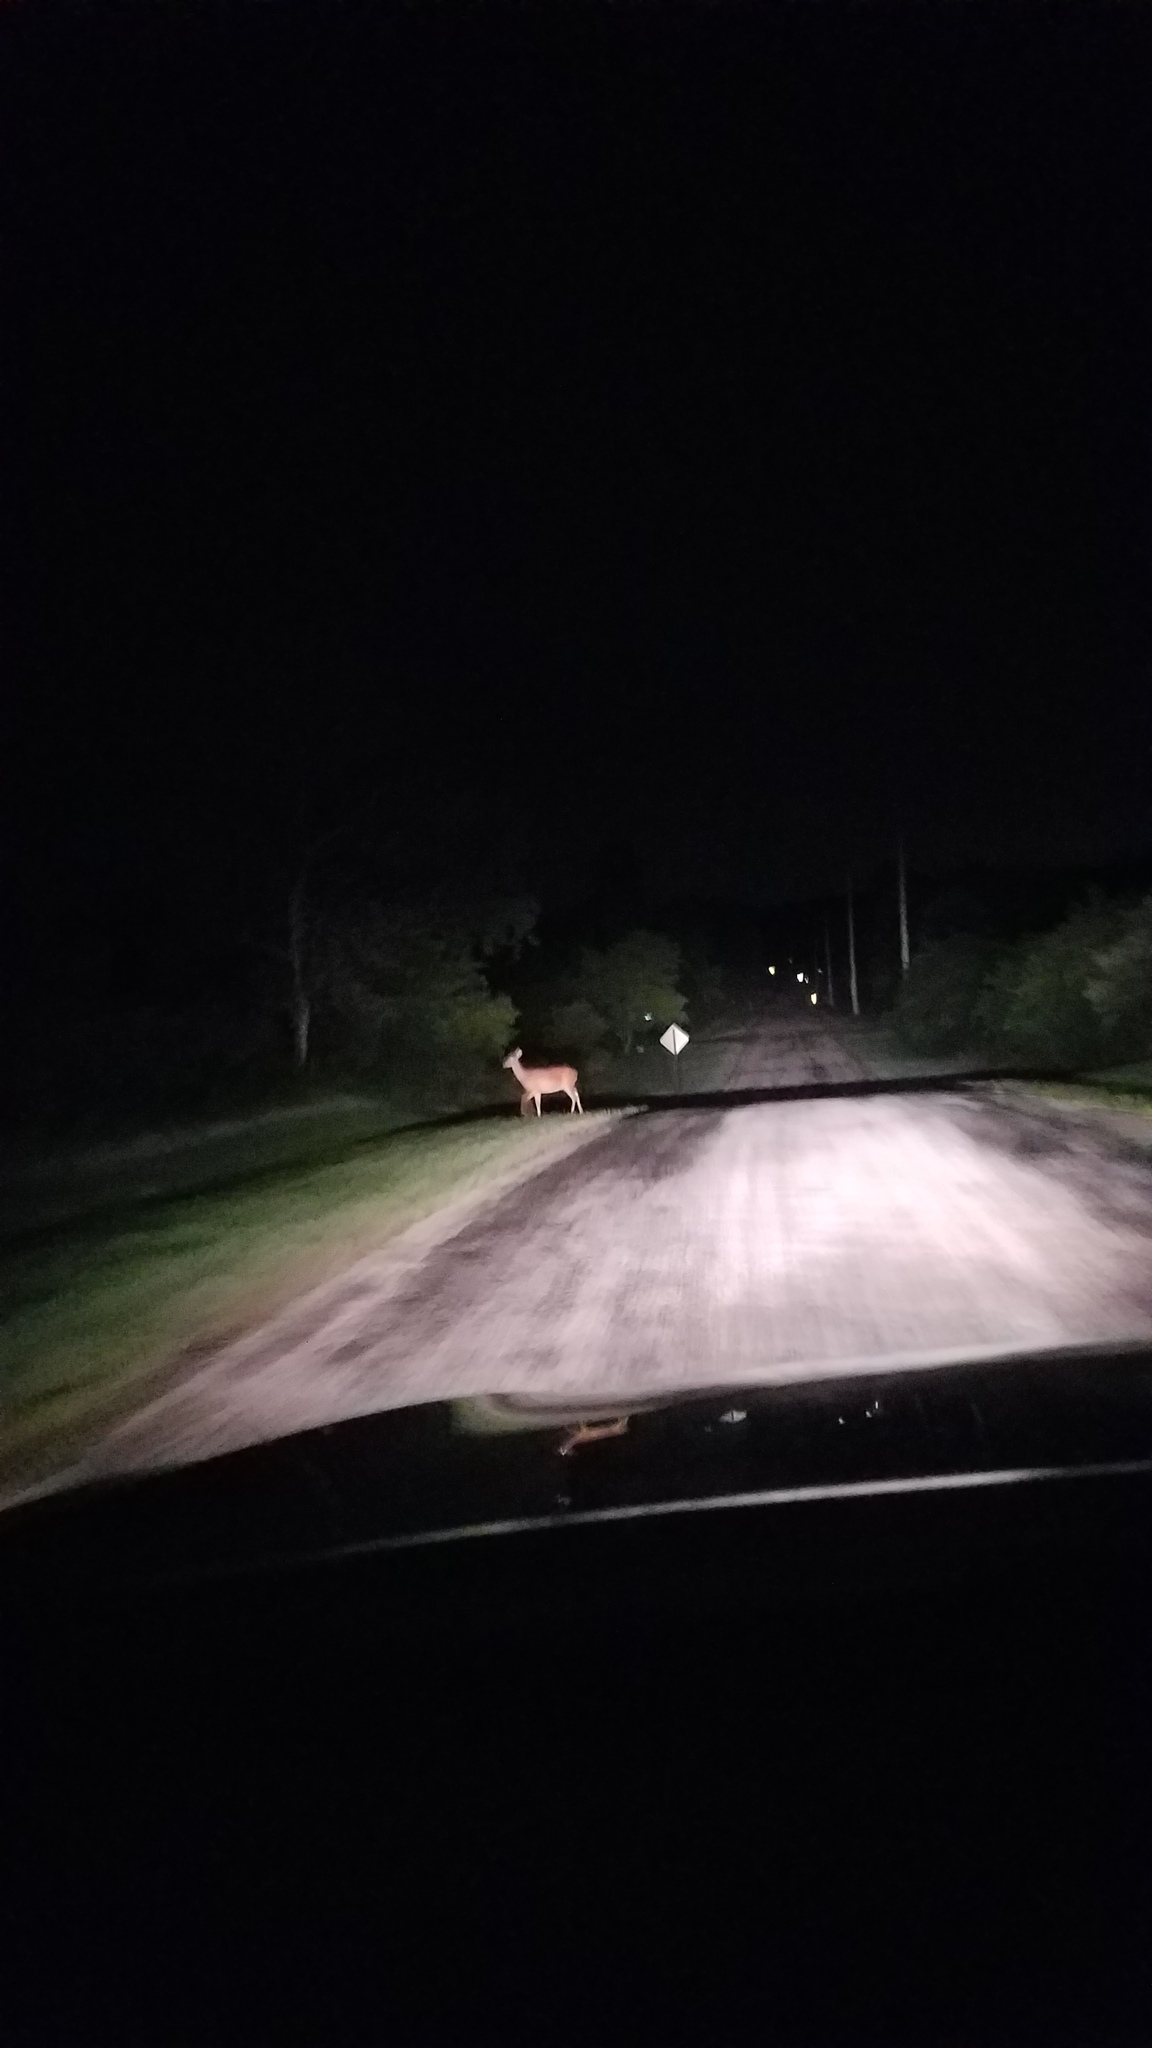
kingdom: Animalia
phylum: Chordata
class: Mammalia
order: Artiodactyla
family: Cervidae
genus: Odocoileus
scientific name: Odocoileus virginianus
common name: White-tailed deer
